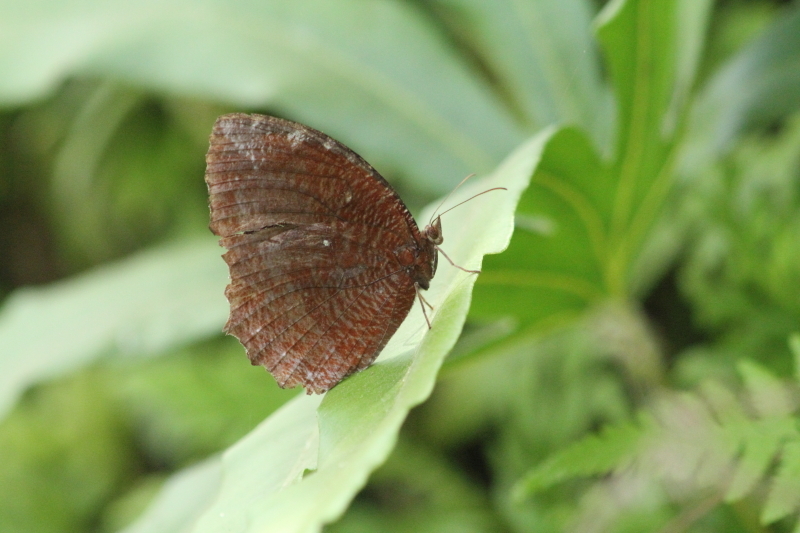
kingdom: Animalia
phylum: Arthropoda
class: Insecta
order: Lepidoptera
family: Nymphalidae
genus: Elymnias
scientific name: Elymnias hypermnestra
